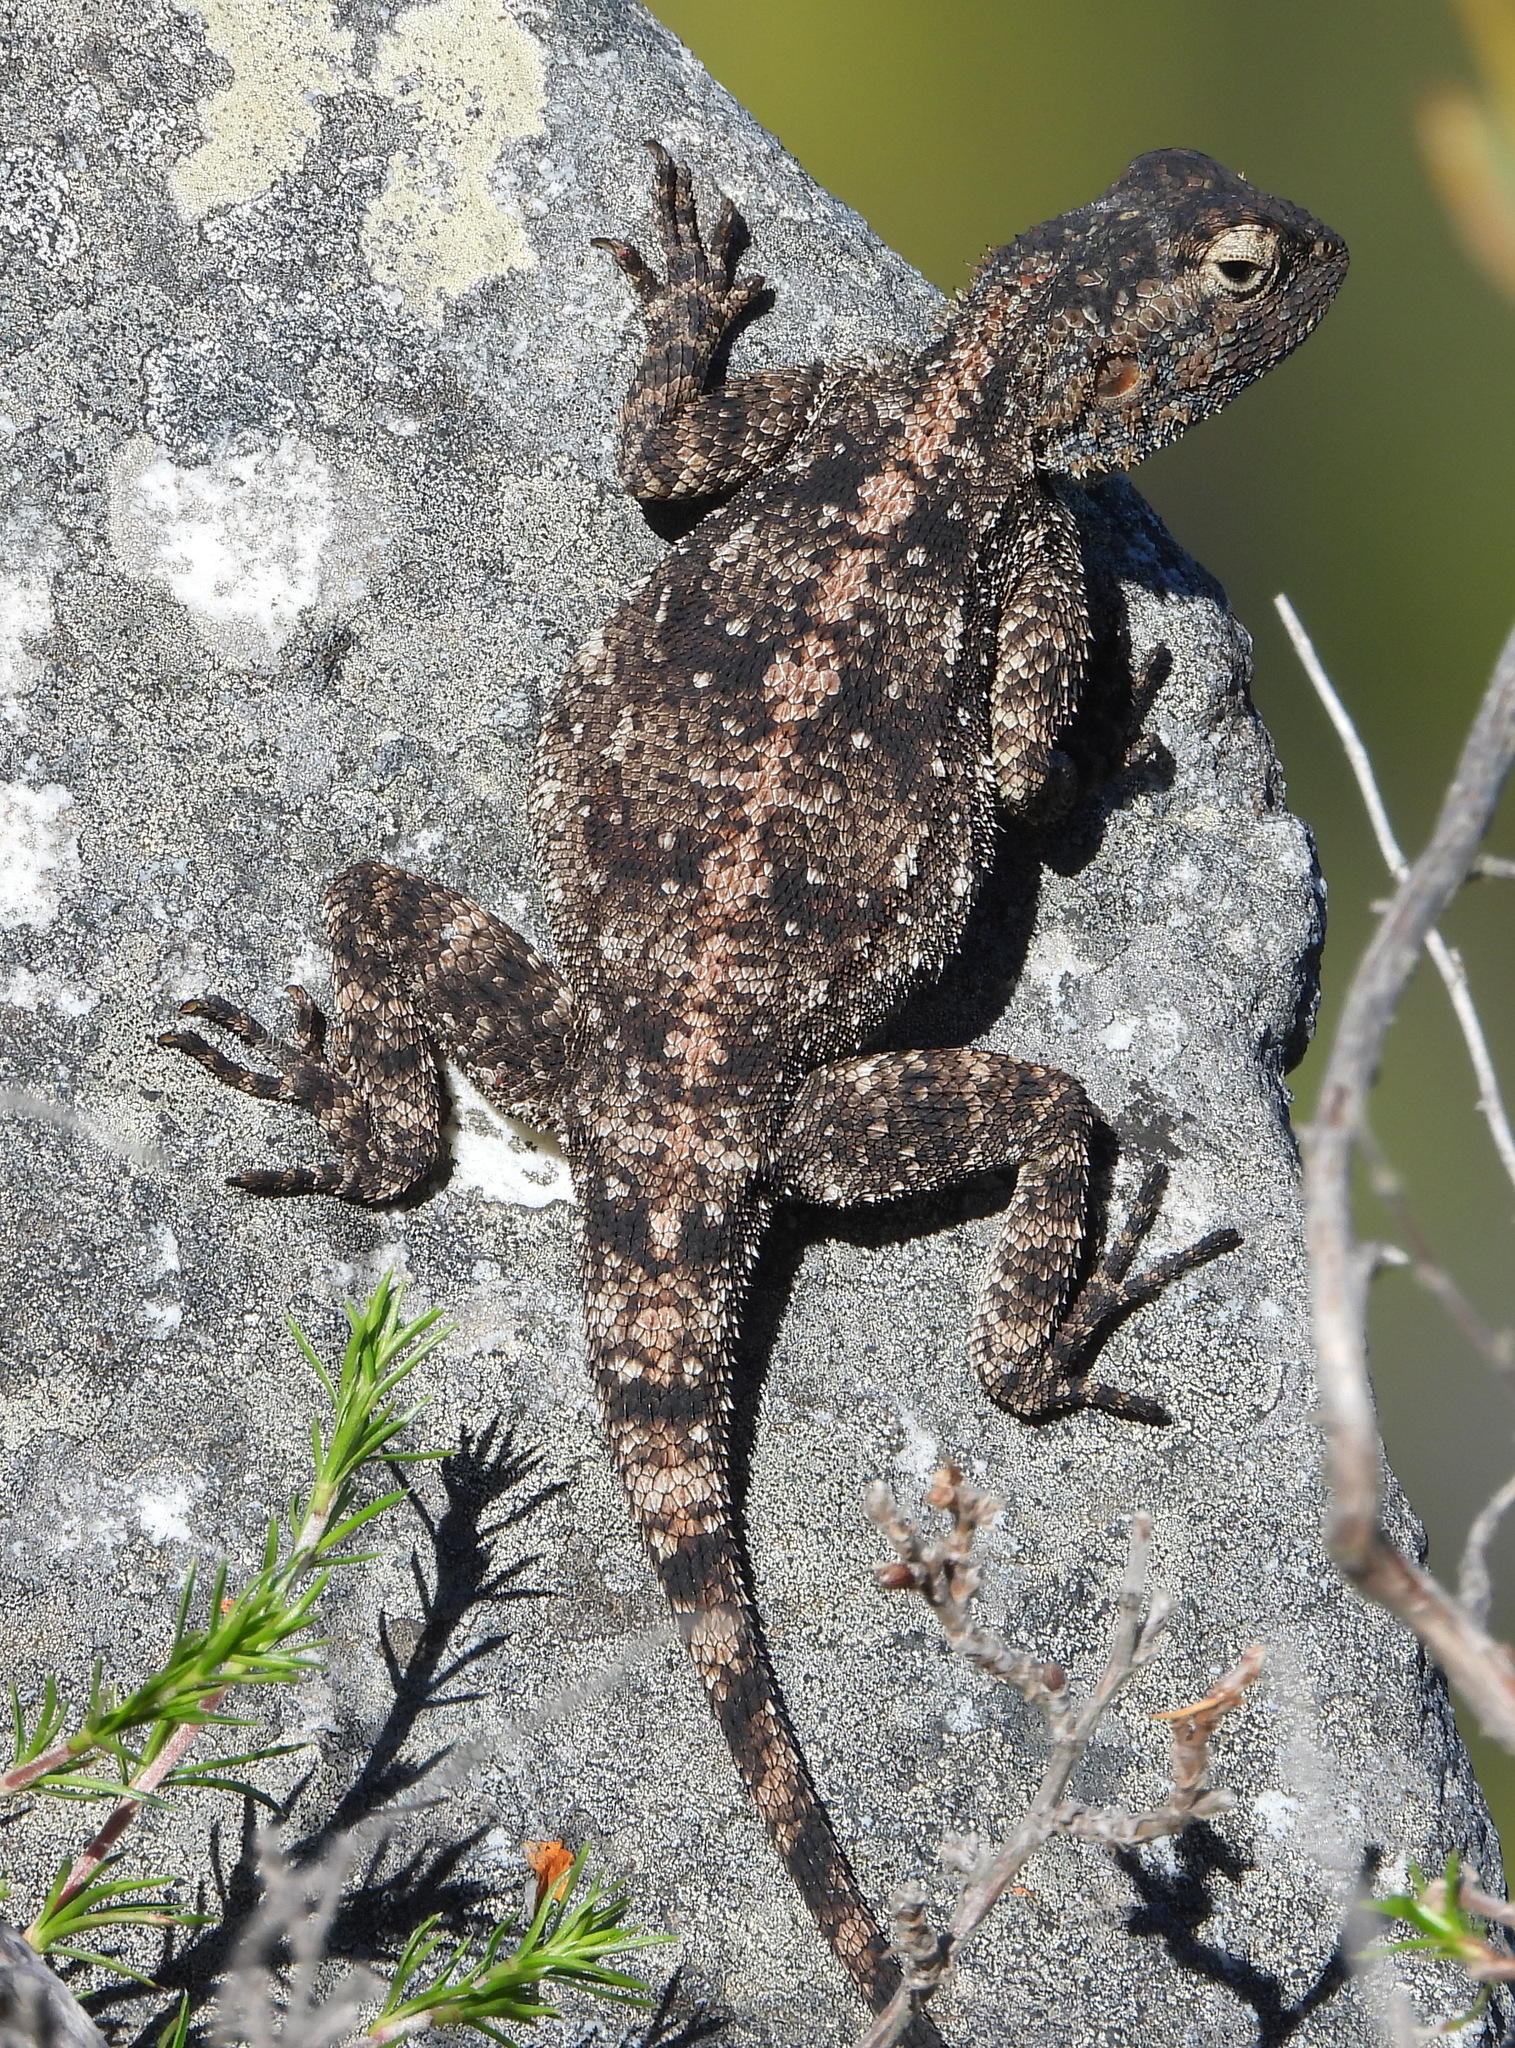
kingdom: Animalia
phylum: Chordata
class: Squamata
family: Agamidae
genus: Agama
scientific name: Agama atra
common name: Southern african rock agama
